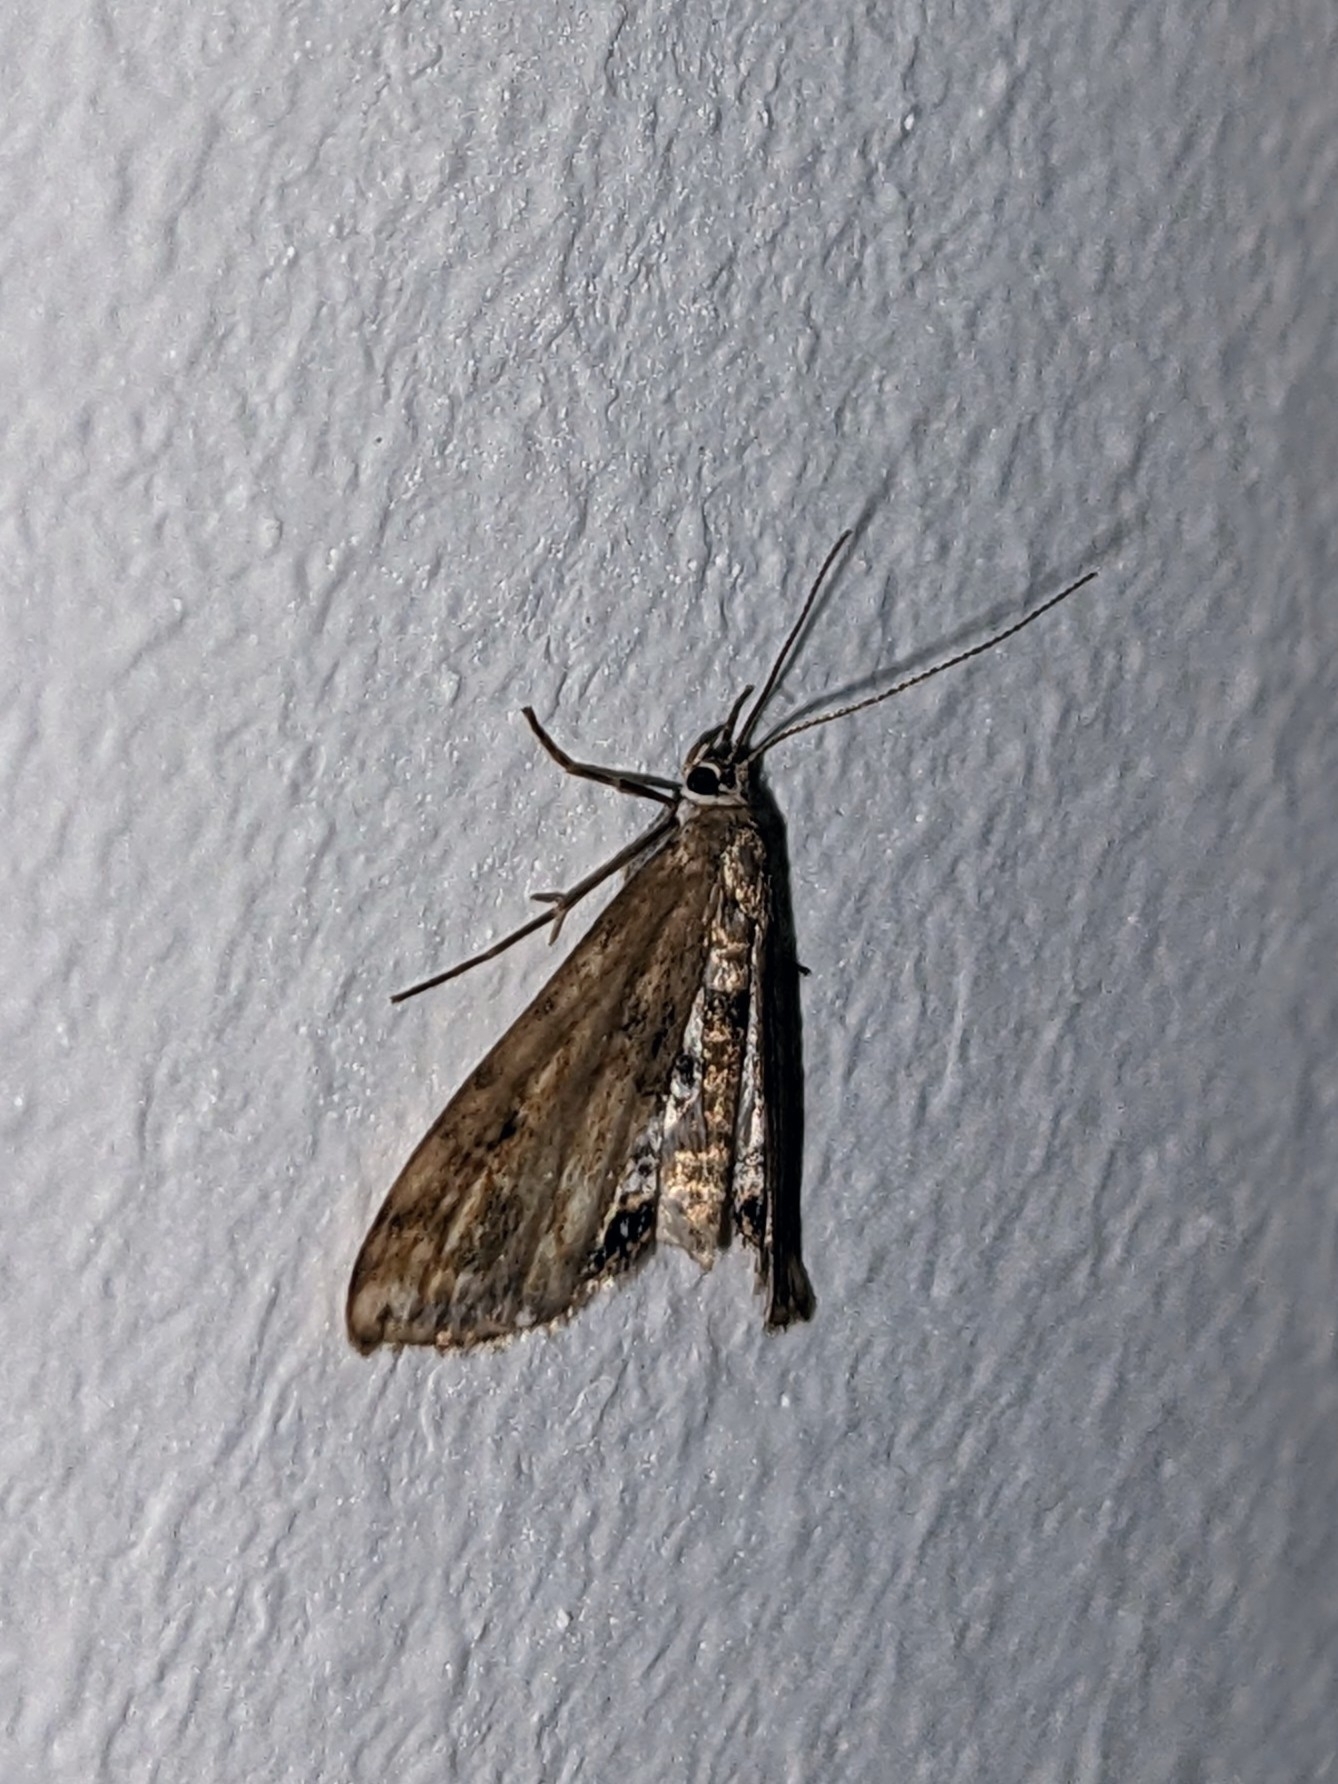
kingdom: Animalia
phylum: Arthropoda
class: Insecta
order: Lepidoptera
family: Crambidae
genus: Cataclysta
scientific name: Cataclysta lemnata
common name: Small china-mark
